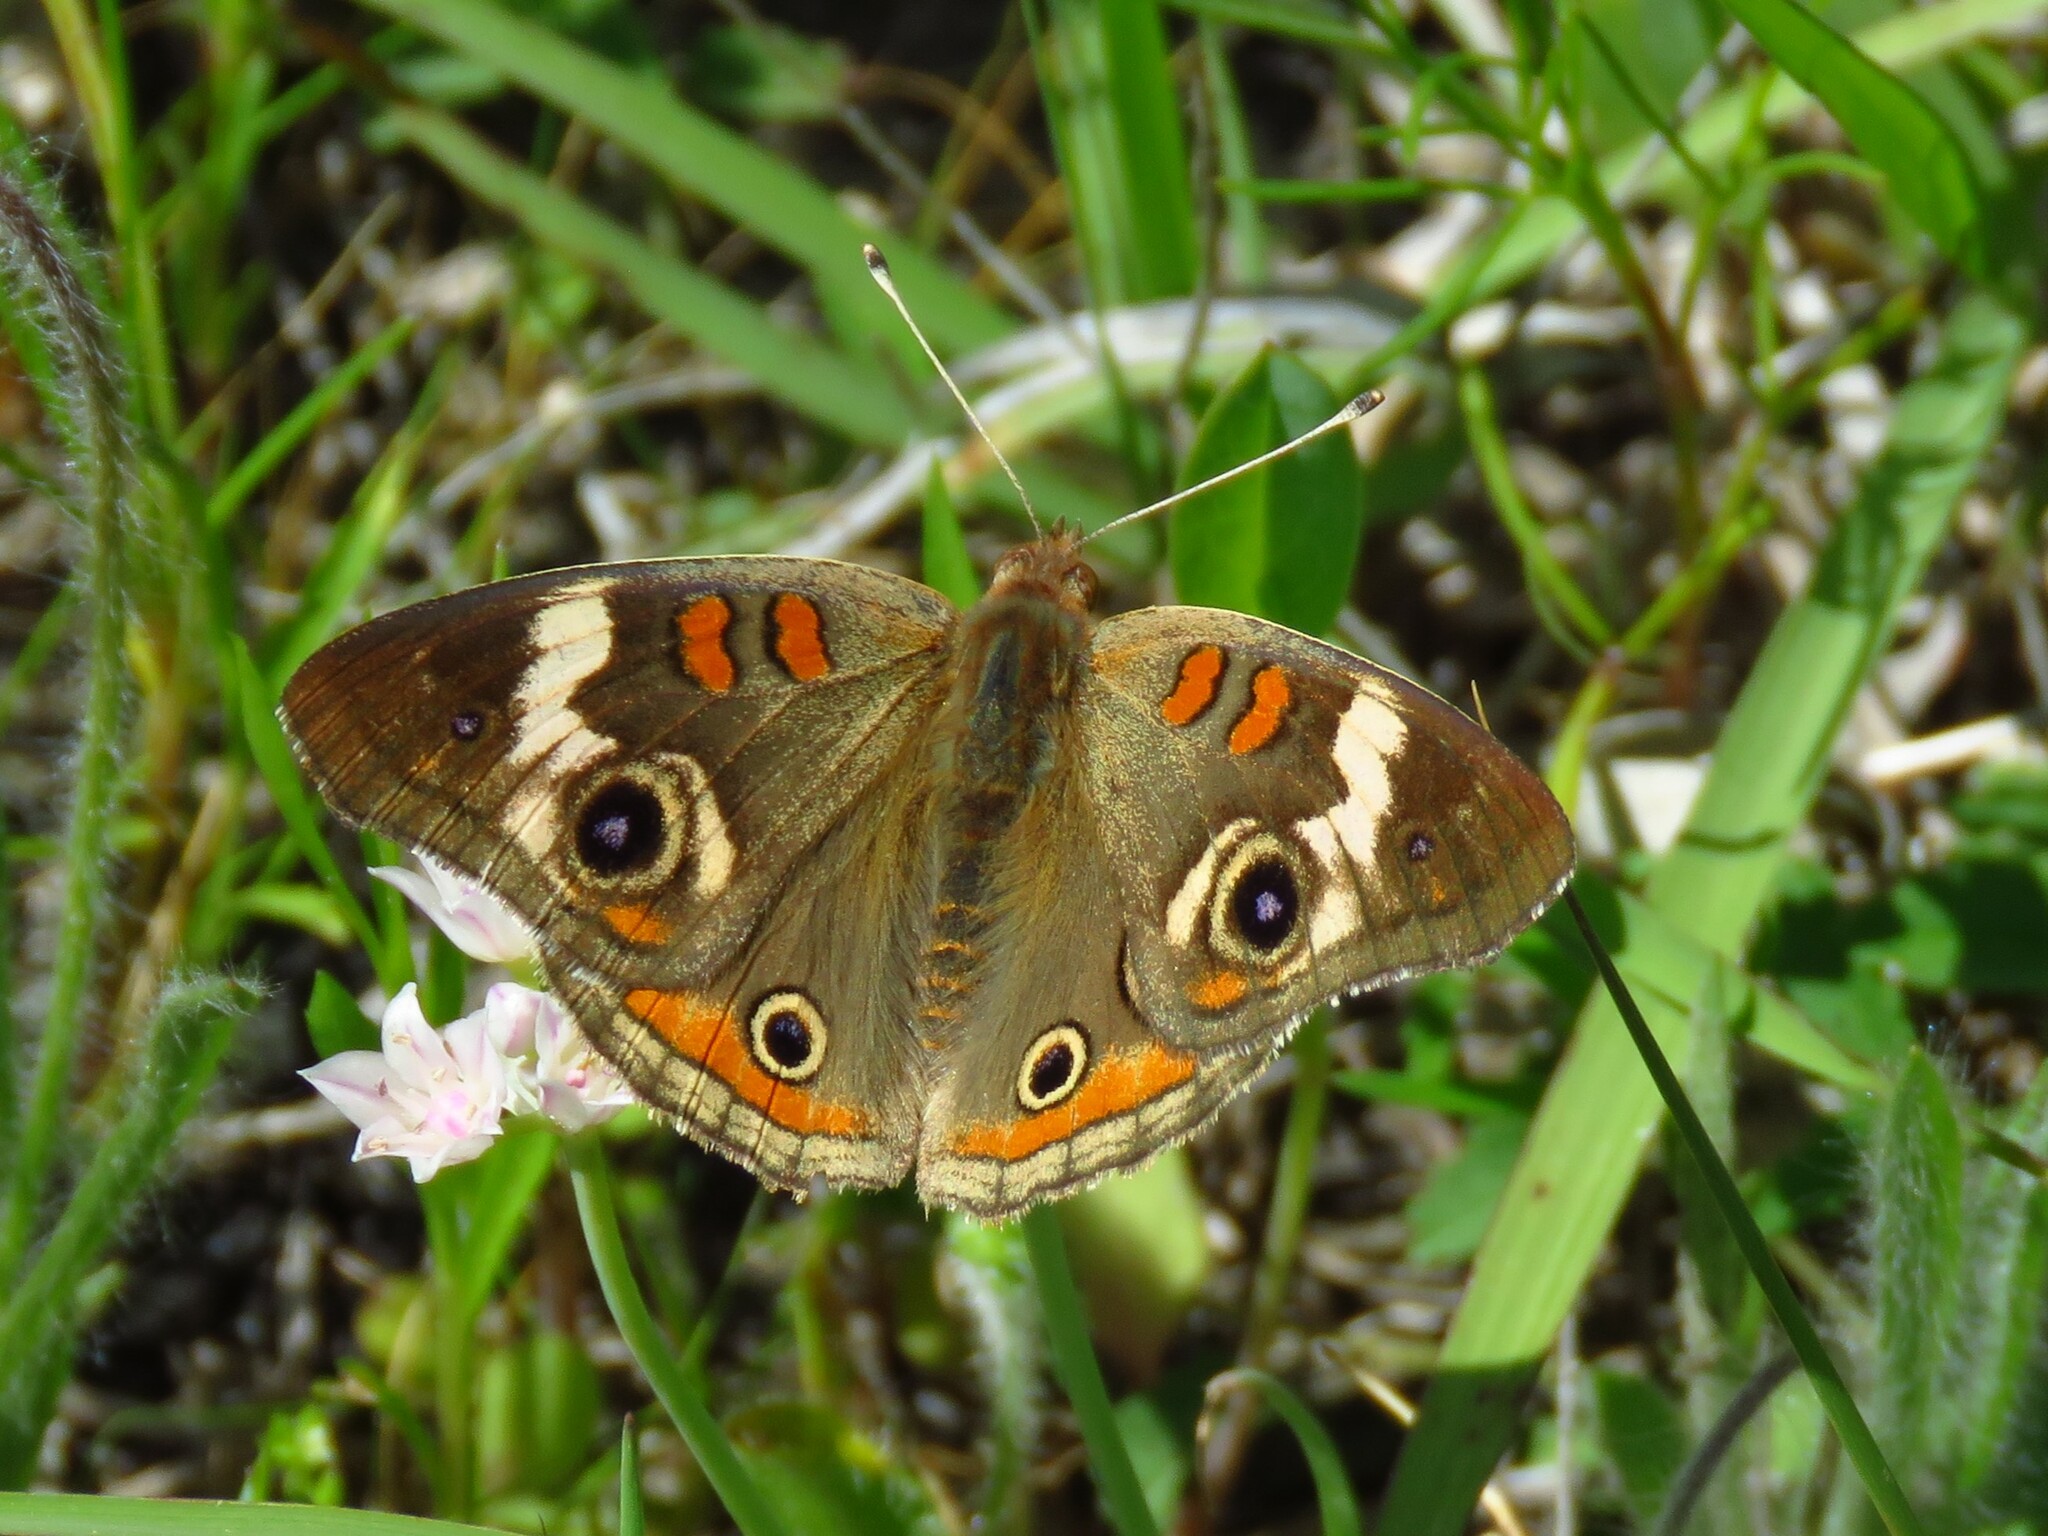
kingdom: Animalia
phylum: Arthropoda
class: Insecta
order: Lepidoptera
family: Nymphalidae
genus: Junonia
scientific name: Junonia coenia
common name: Common buckeye
